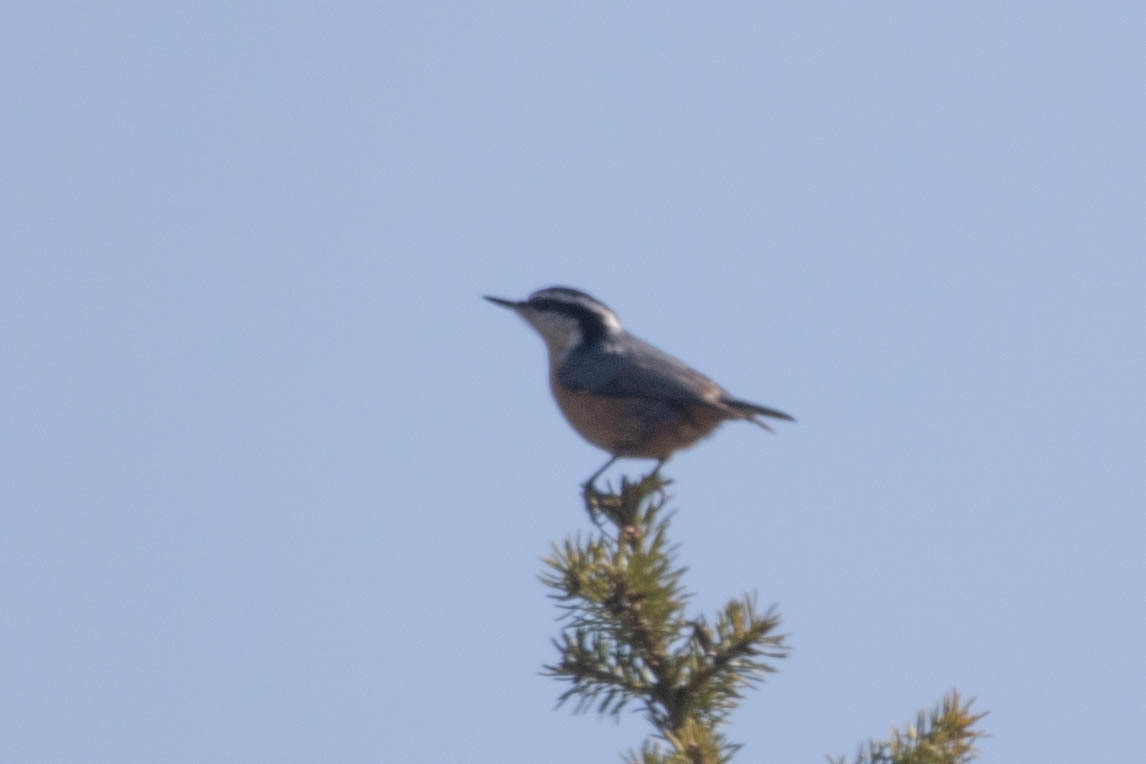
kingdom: Animalia
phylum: Chordata
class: Aves
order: Passeriformes
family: Sittidae
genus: Sitta
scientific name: Sitta canadensis
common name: Red-breasted nuthatch
